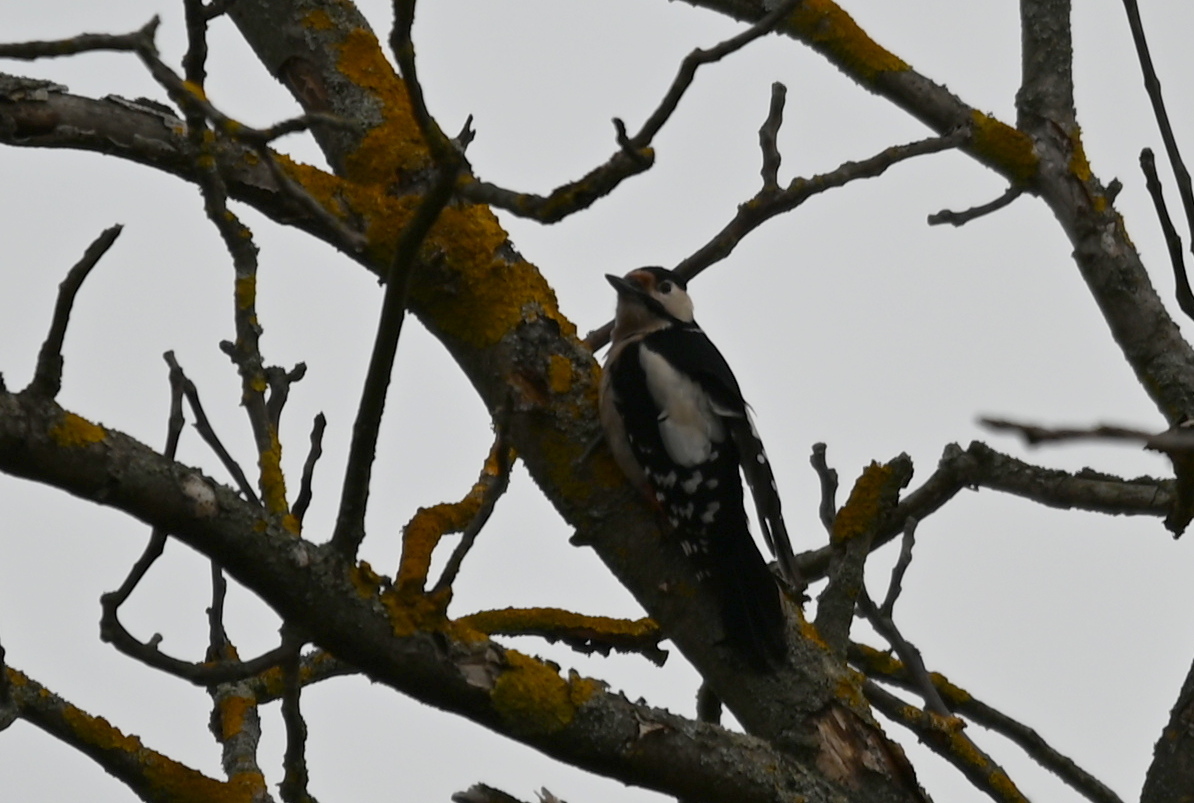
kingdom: Animalia
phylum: Chordata
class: Aves
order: Piciformes
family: Picidae
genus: Dendrocopos
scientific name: Dendrocopos major
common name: Great spotted woodpecker
